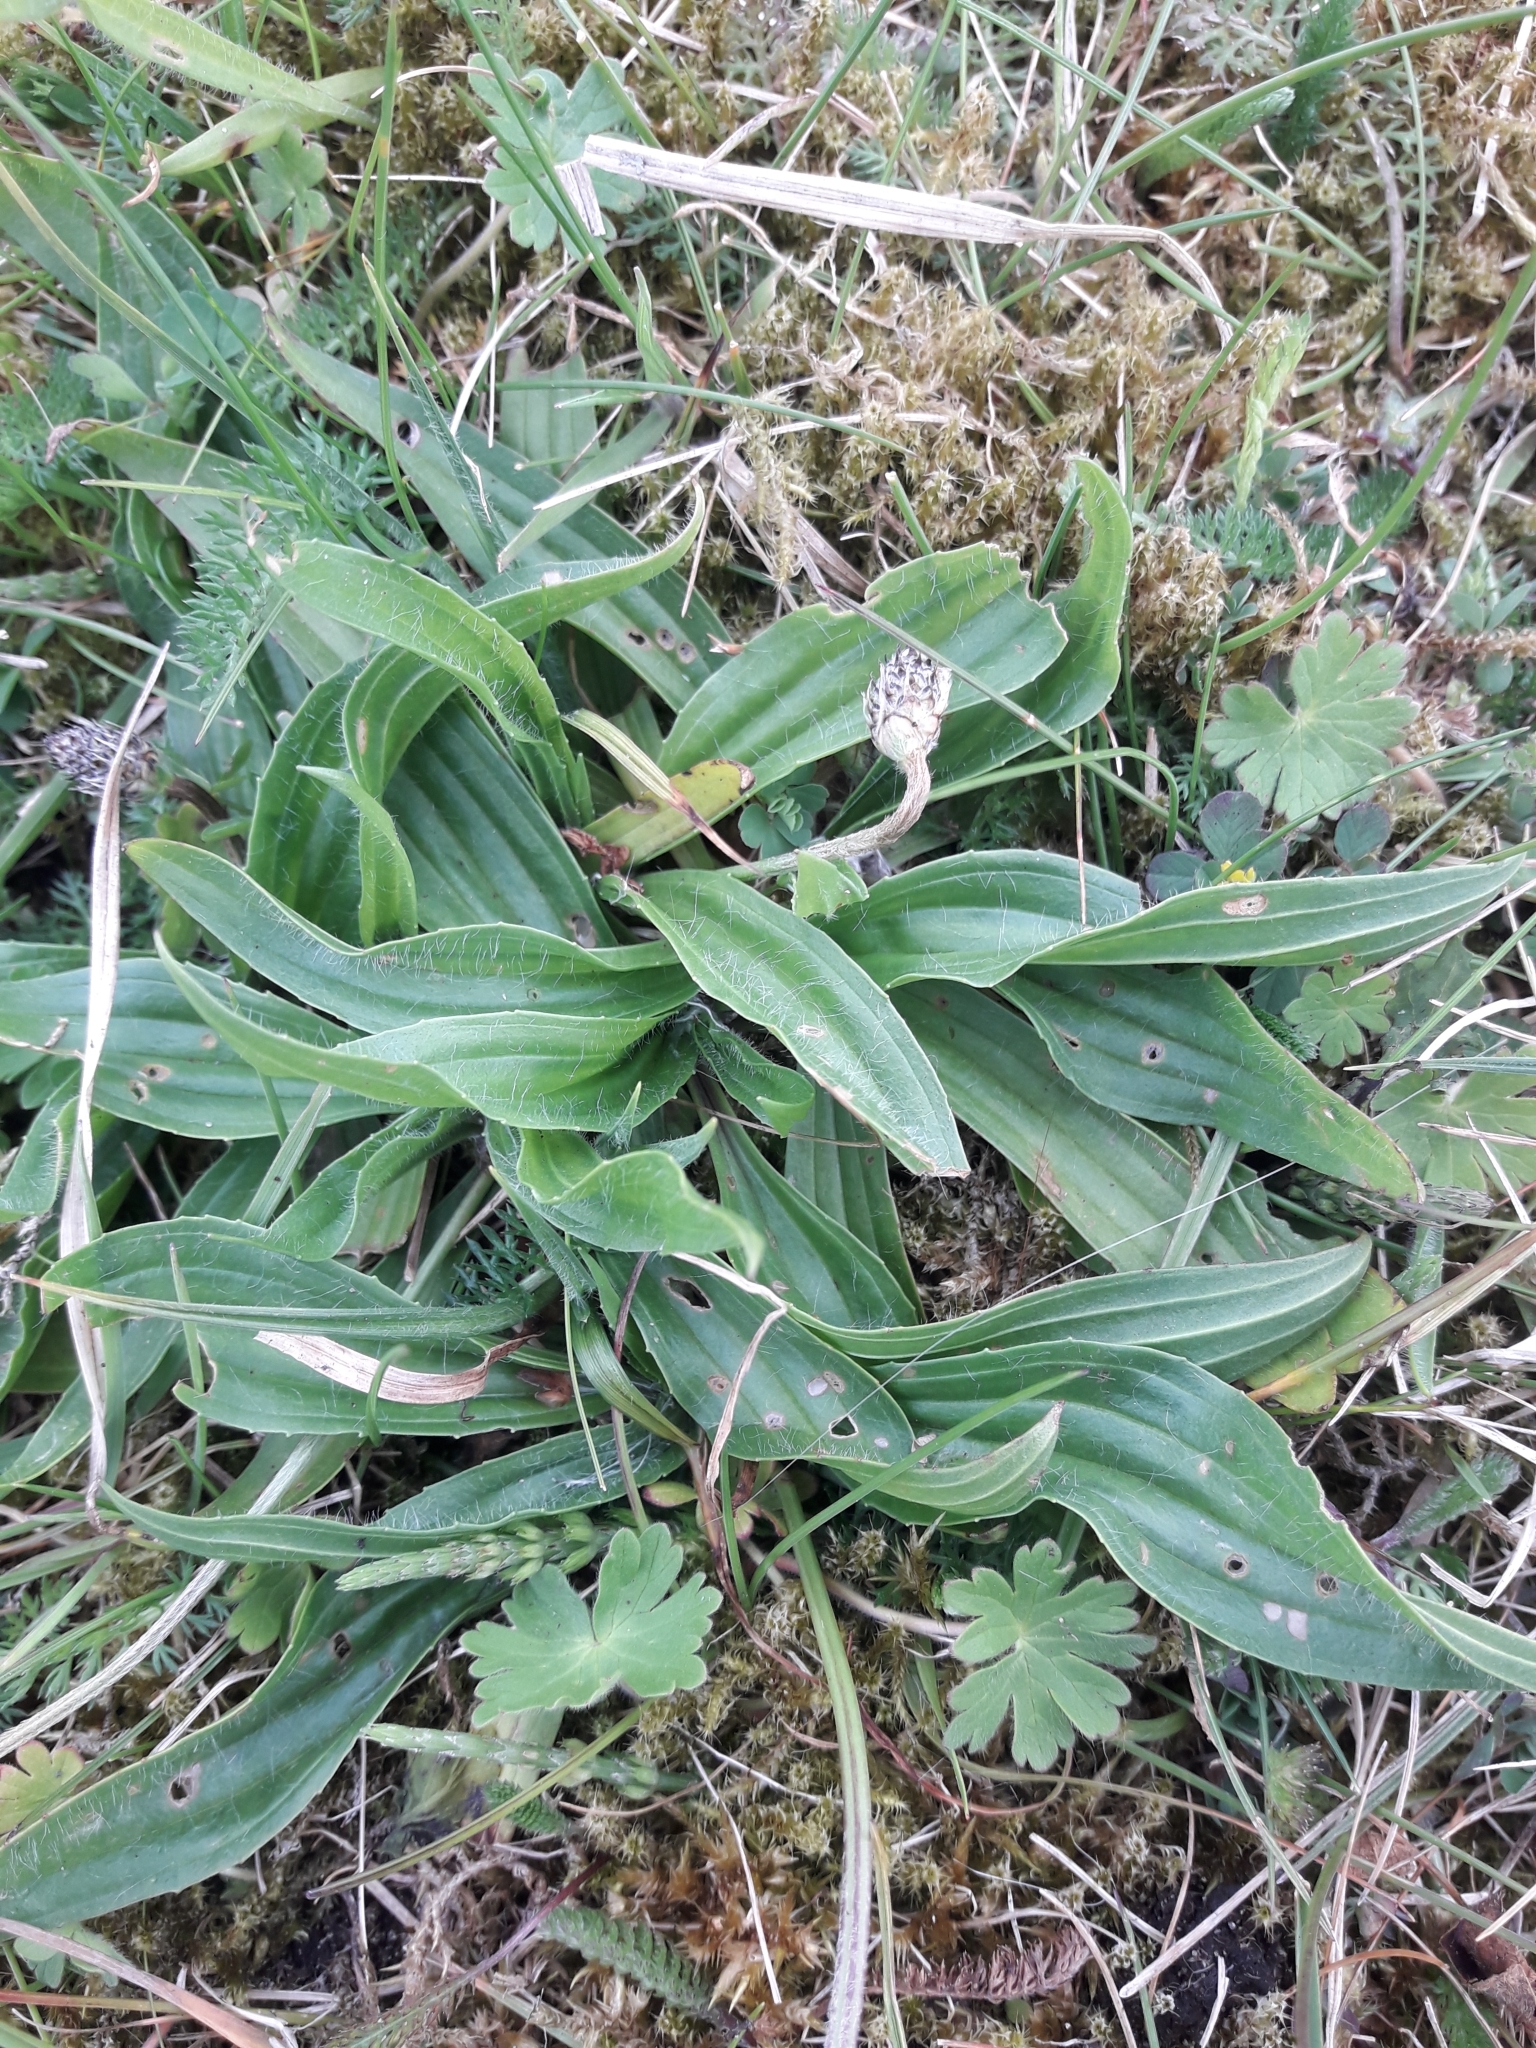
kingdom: Plantae
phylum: Tracheophyta
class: Magnoliopsida
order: Lamiales
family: Plantaginaceae
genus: Plantago
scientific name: Plantago lanceolata
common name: Ribwort plantain
